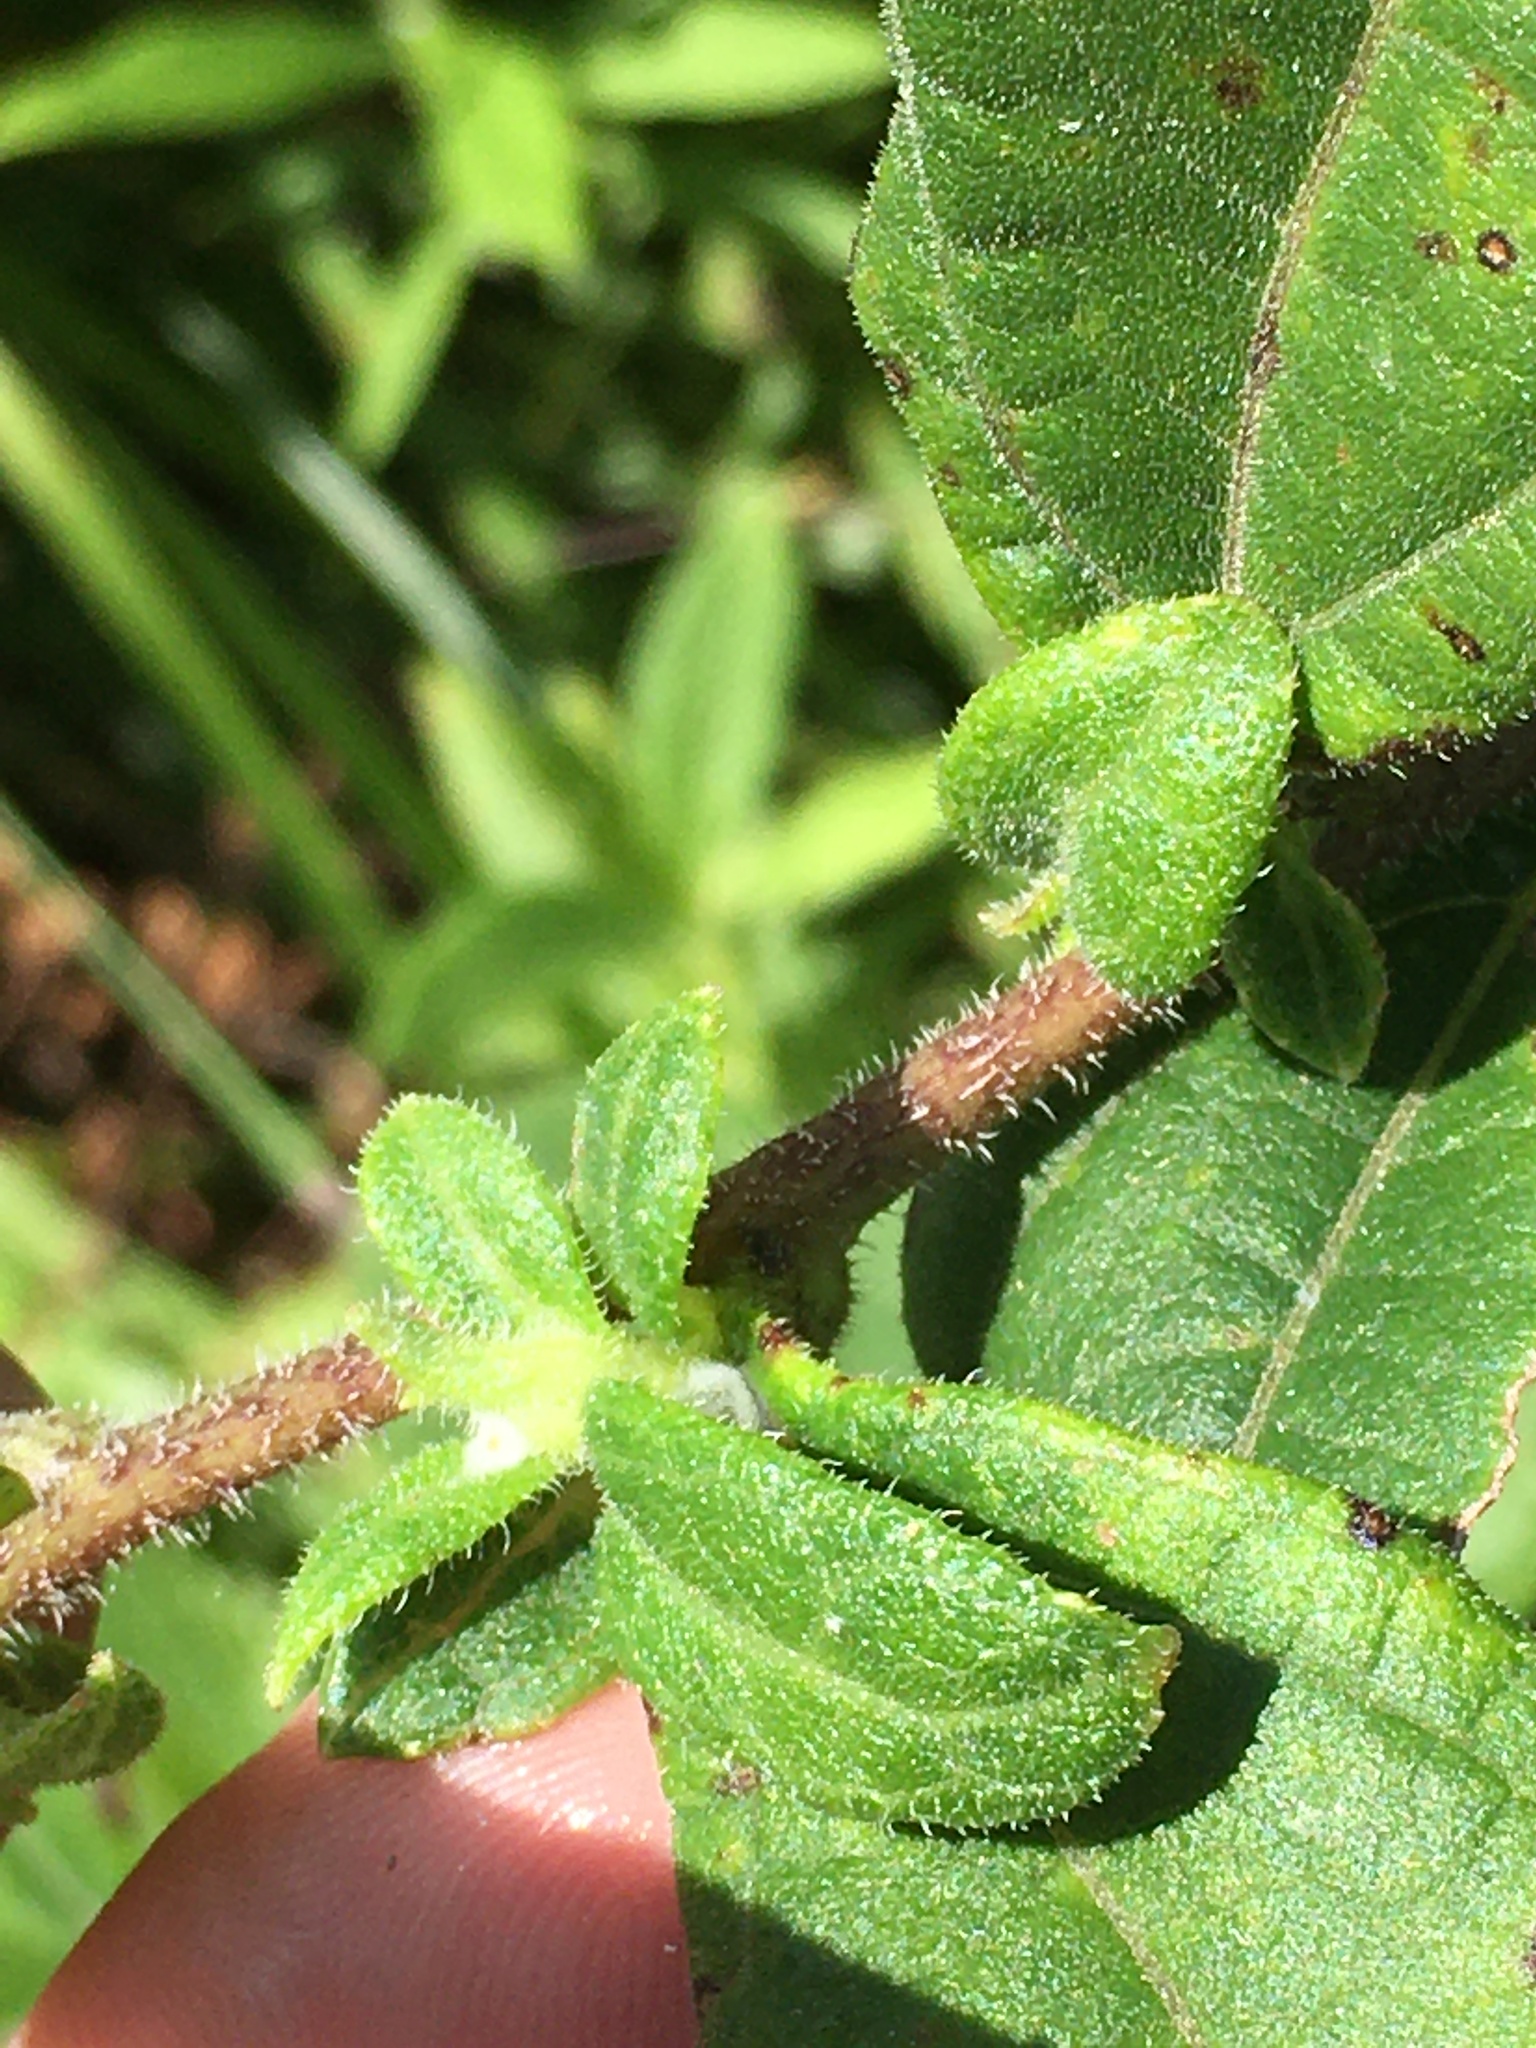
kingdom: Plantae
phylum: Tracheophyta
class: Magnoliopsida
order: Asterales
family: Asteraceae
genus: Helianthus
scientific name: Helianthus resinosus
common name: Resin-dot sunflower
